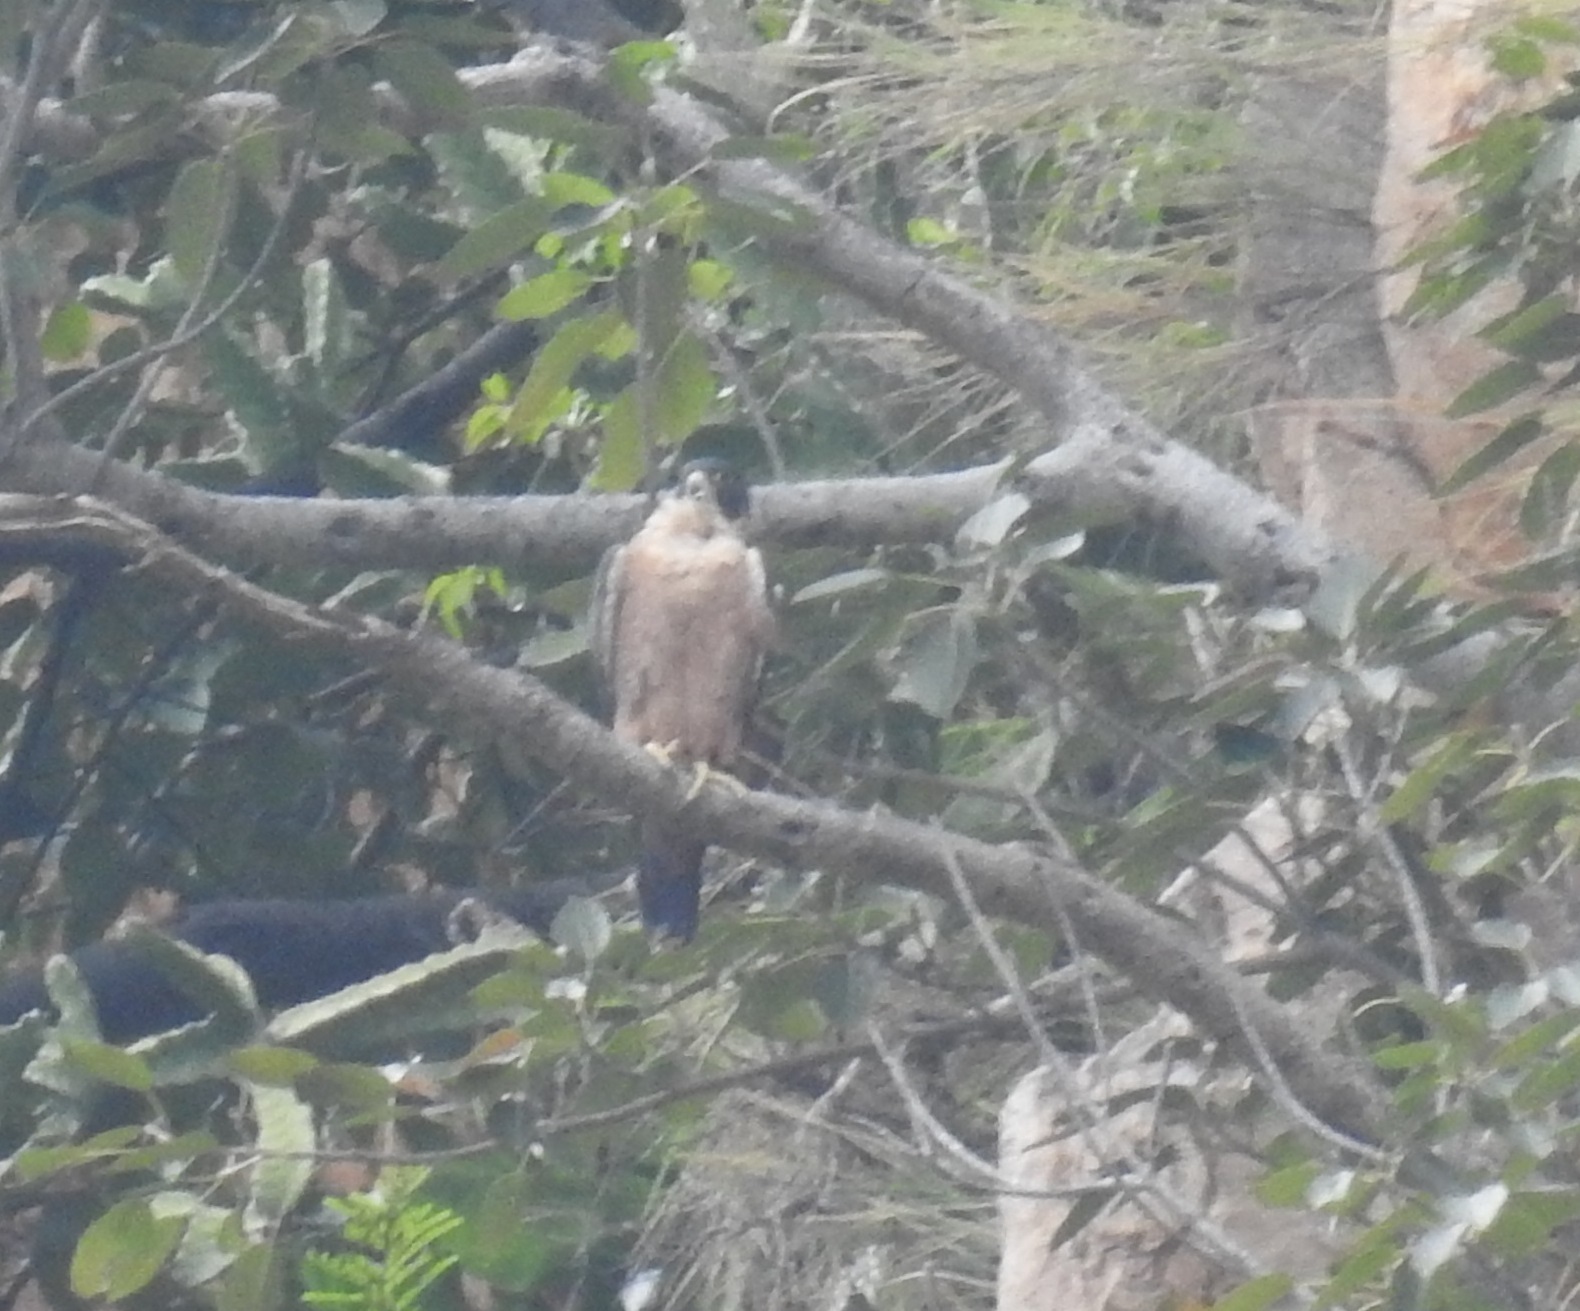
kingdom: Animalia
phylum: Chordata
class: Aves
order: Falconiformes
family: Falconidae
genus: Falco
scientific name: Falco peregrinus
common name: Peregrine falcon
